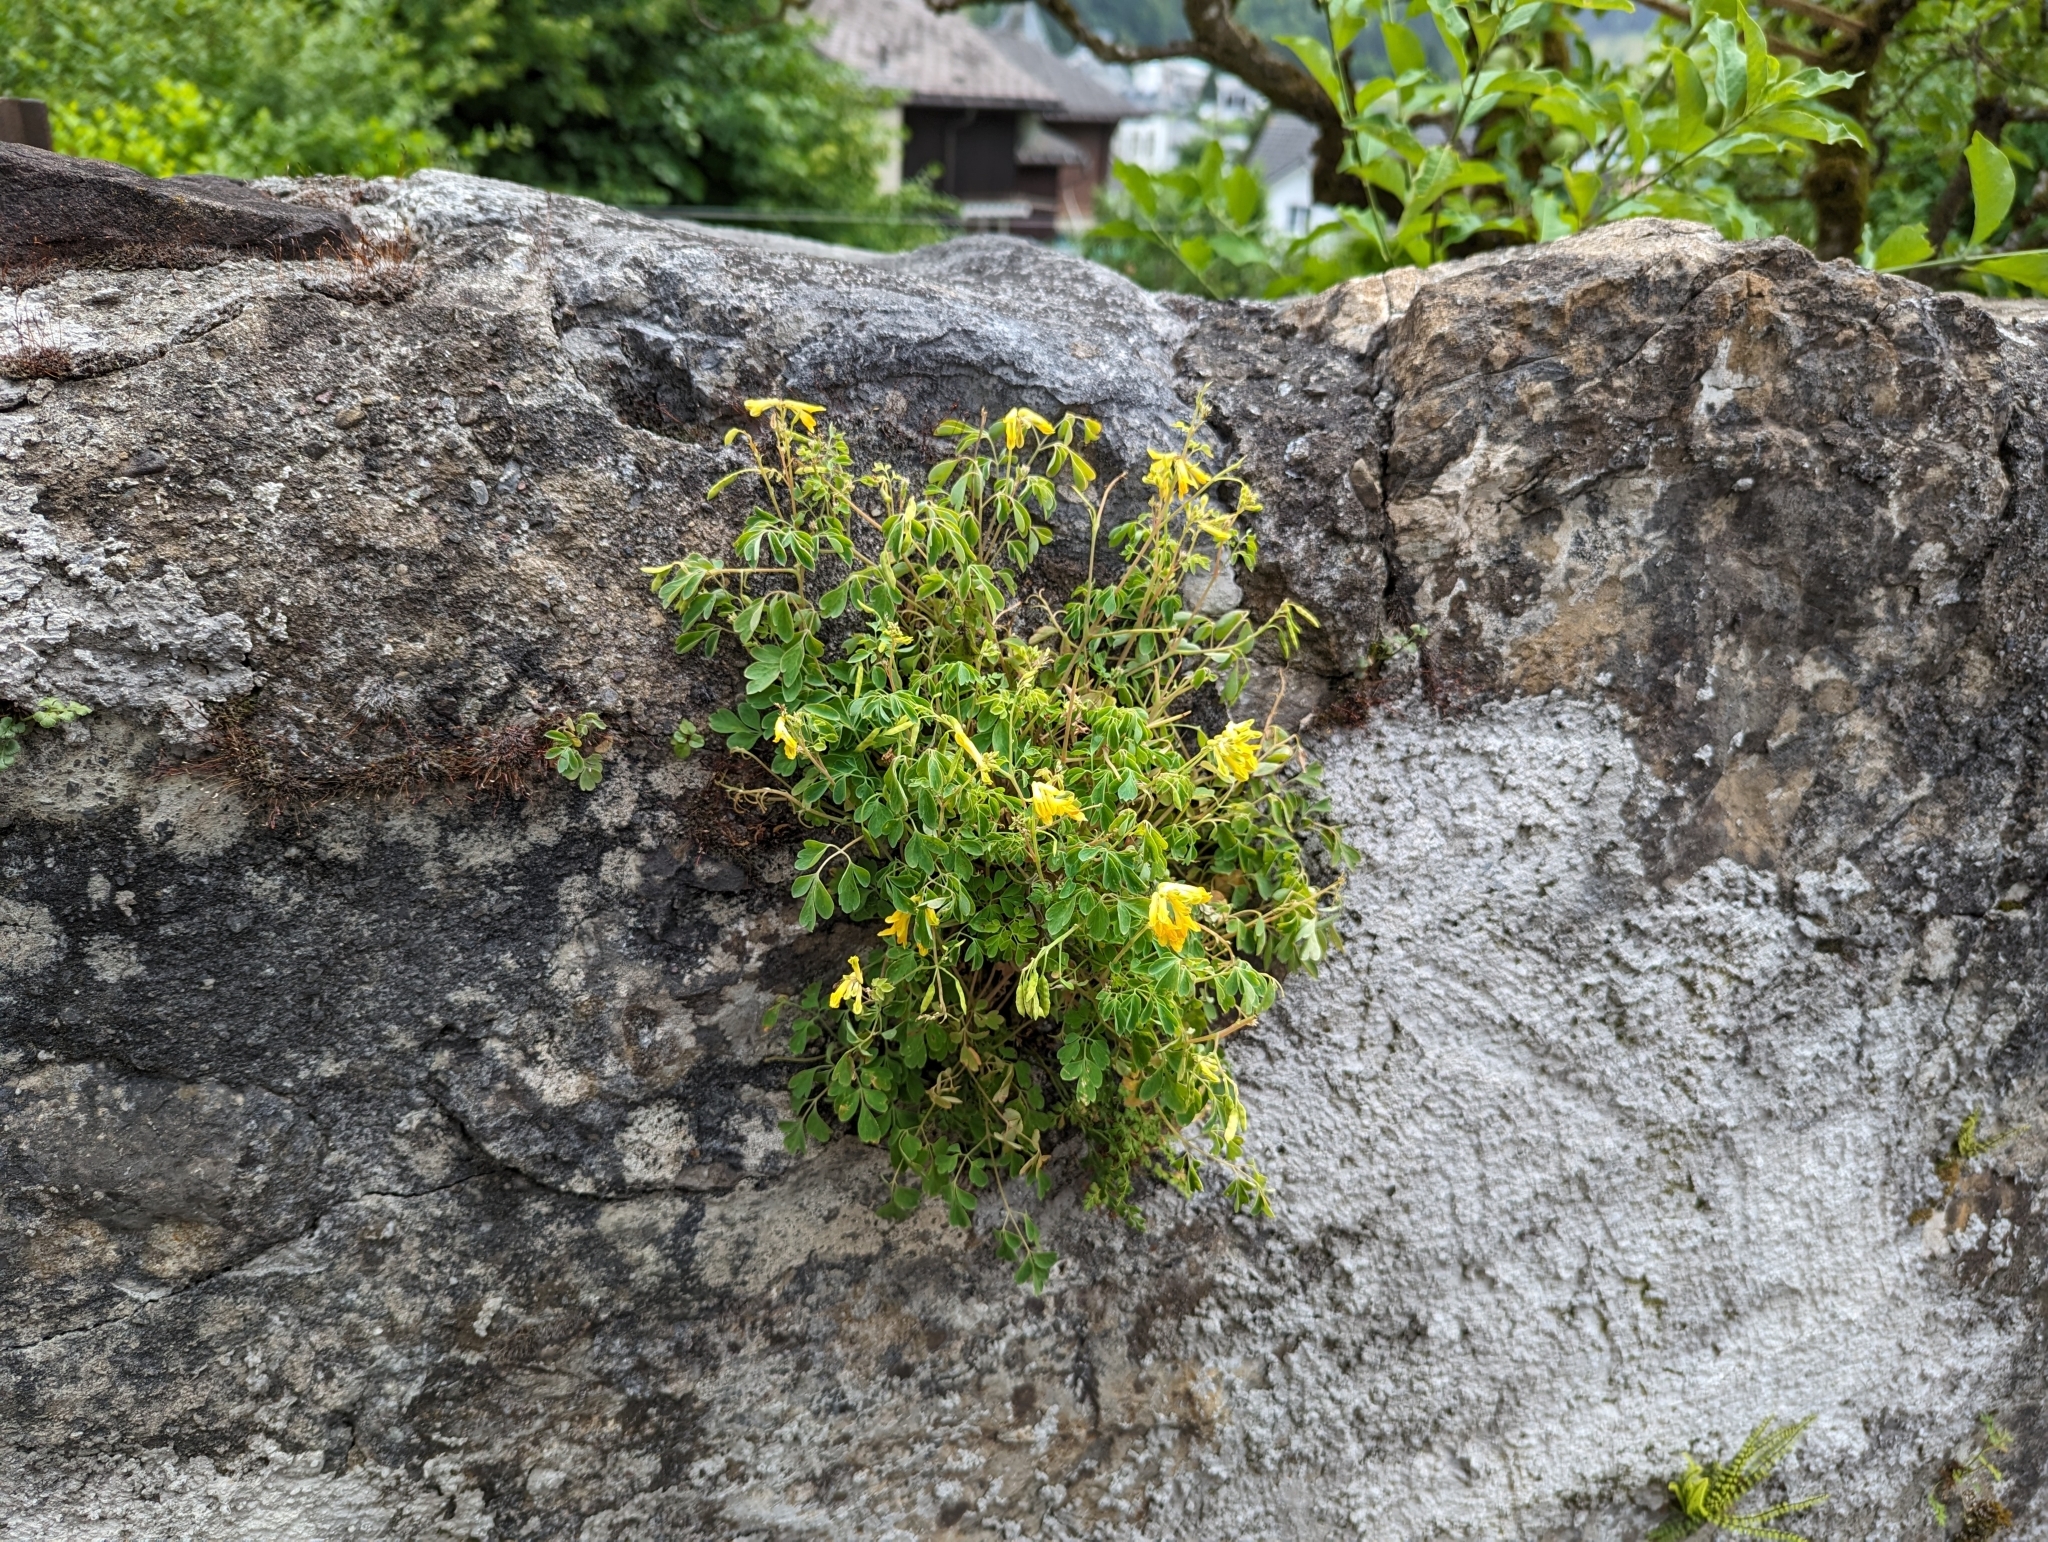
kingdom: Plantae
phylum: Tracheophyta
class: Magnoliopsida
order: Ranunculales
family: Papaveraceae
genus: Pseudofumaria
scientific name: Pseudofumaria lutea
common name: Yellow corydalis
